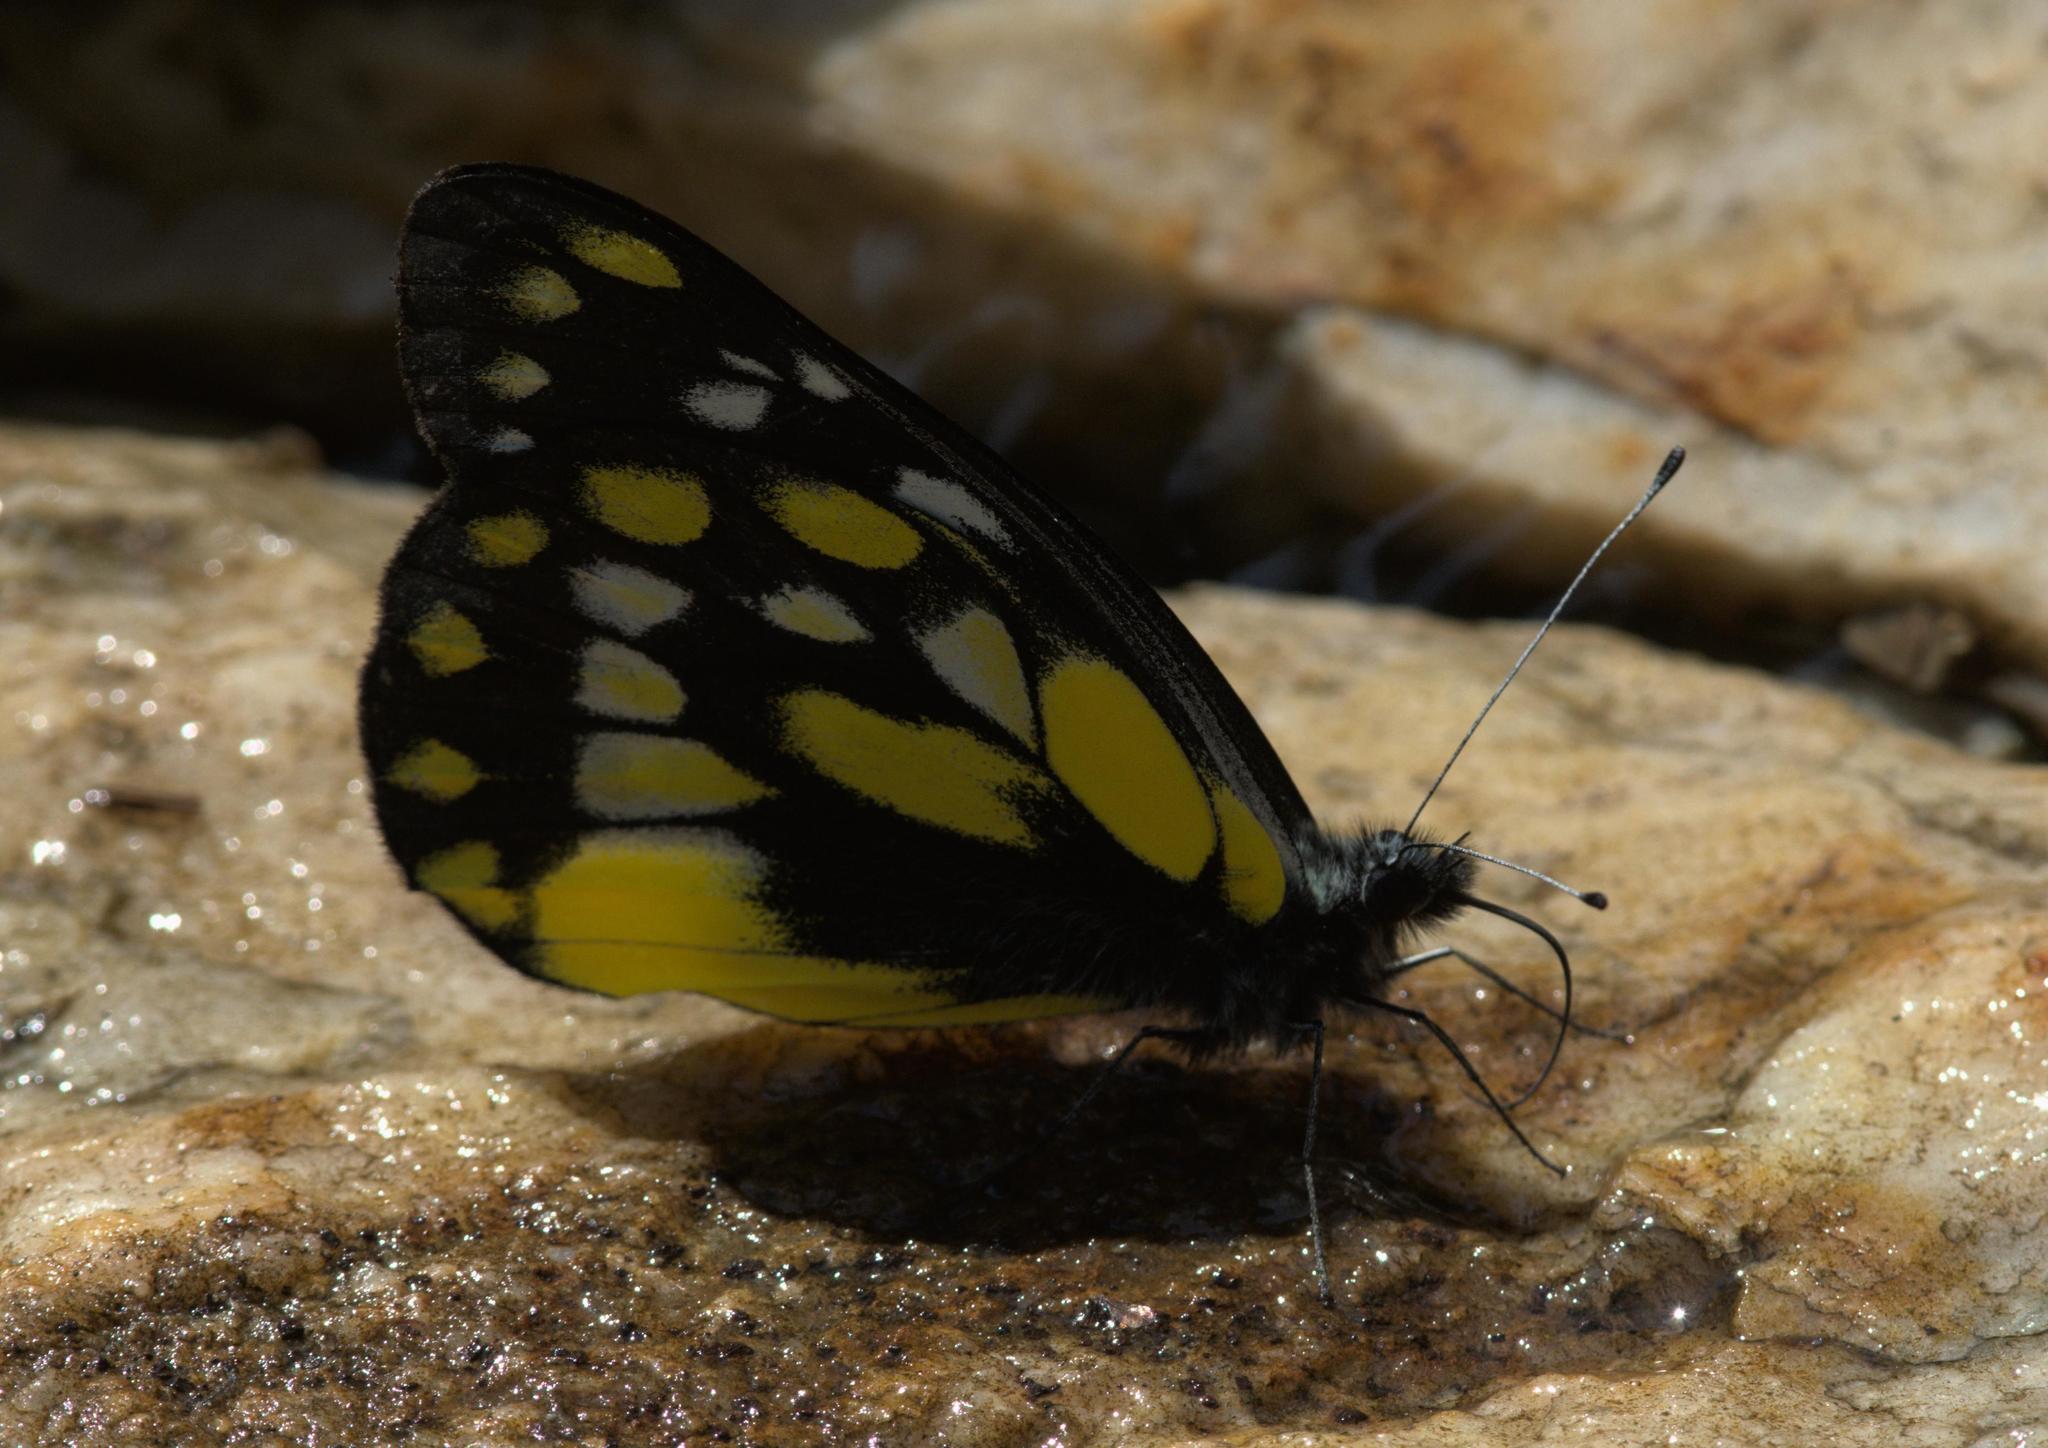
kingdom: Animalia
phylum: Arthropoda
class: Insecta
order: Lepidoptera
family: Pieridae
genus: Delias
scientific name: Delias belladonna
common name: Hill jezebel
